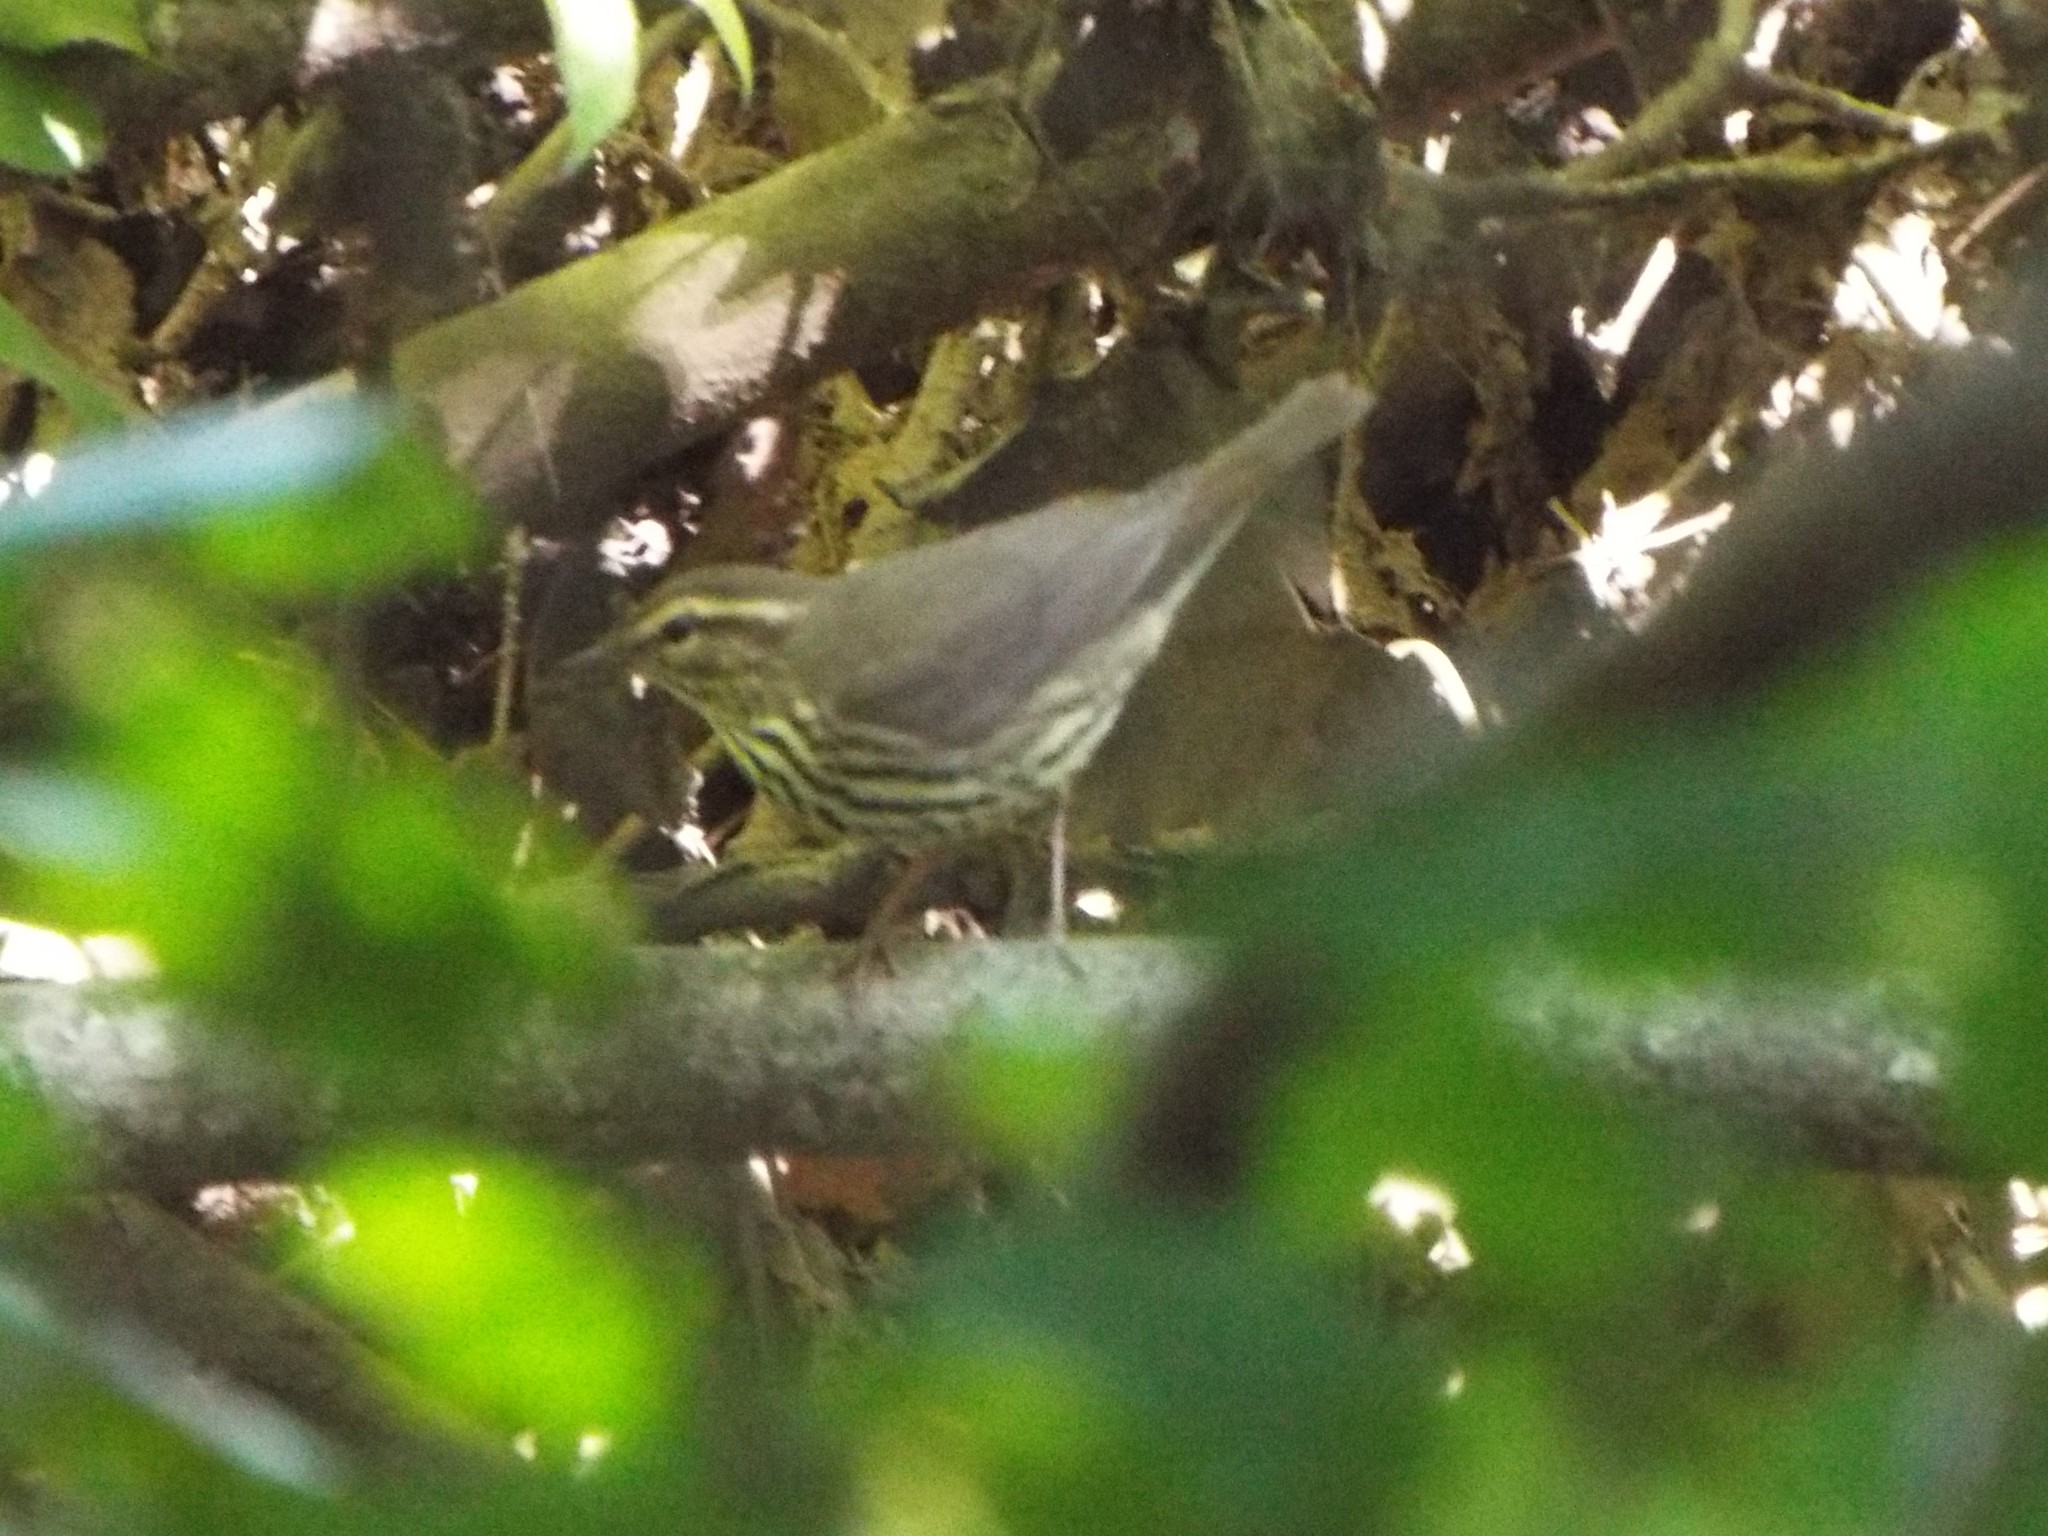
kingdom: Animalia
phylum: Chordata
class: Aves
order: Passeriformes
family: Parulidae
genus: Parkesia
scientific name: Parkesia noveboracensis
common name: Northern waterthrush
